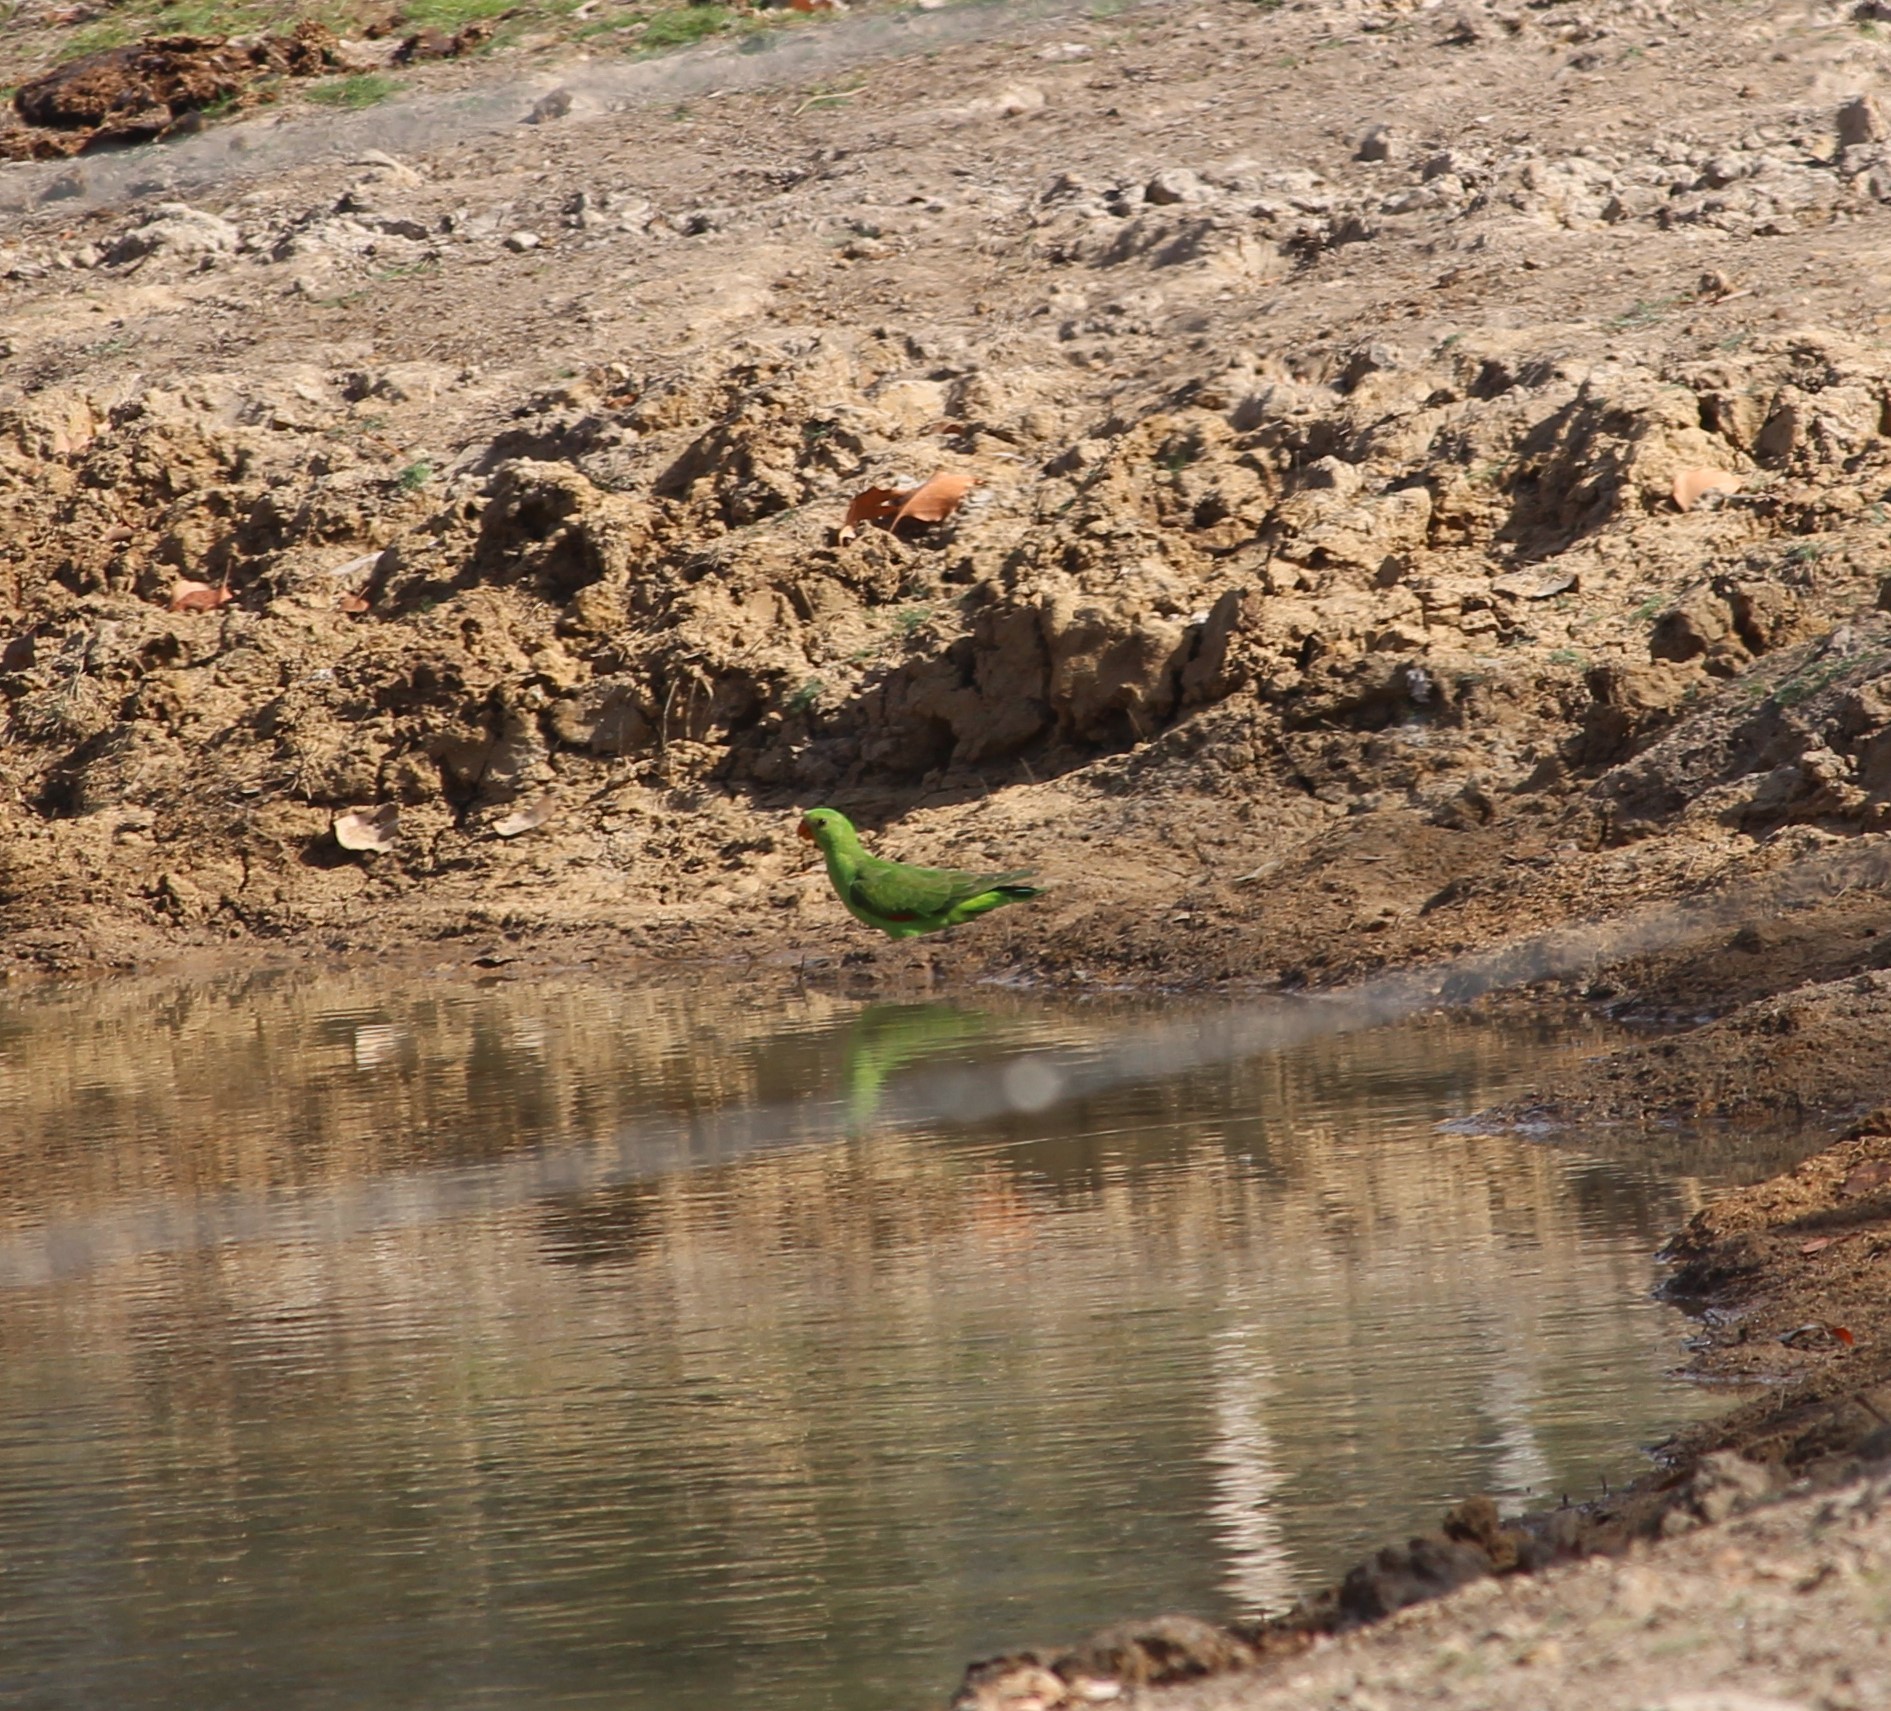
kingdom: Animalia
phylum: Chordata
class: Aves
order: Psittaciformes
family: Psittacidae
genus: Aprosmictus
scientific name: Aprosmictus erythropterus
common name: Red-winged parrot
